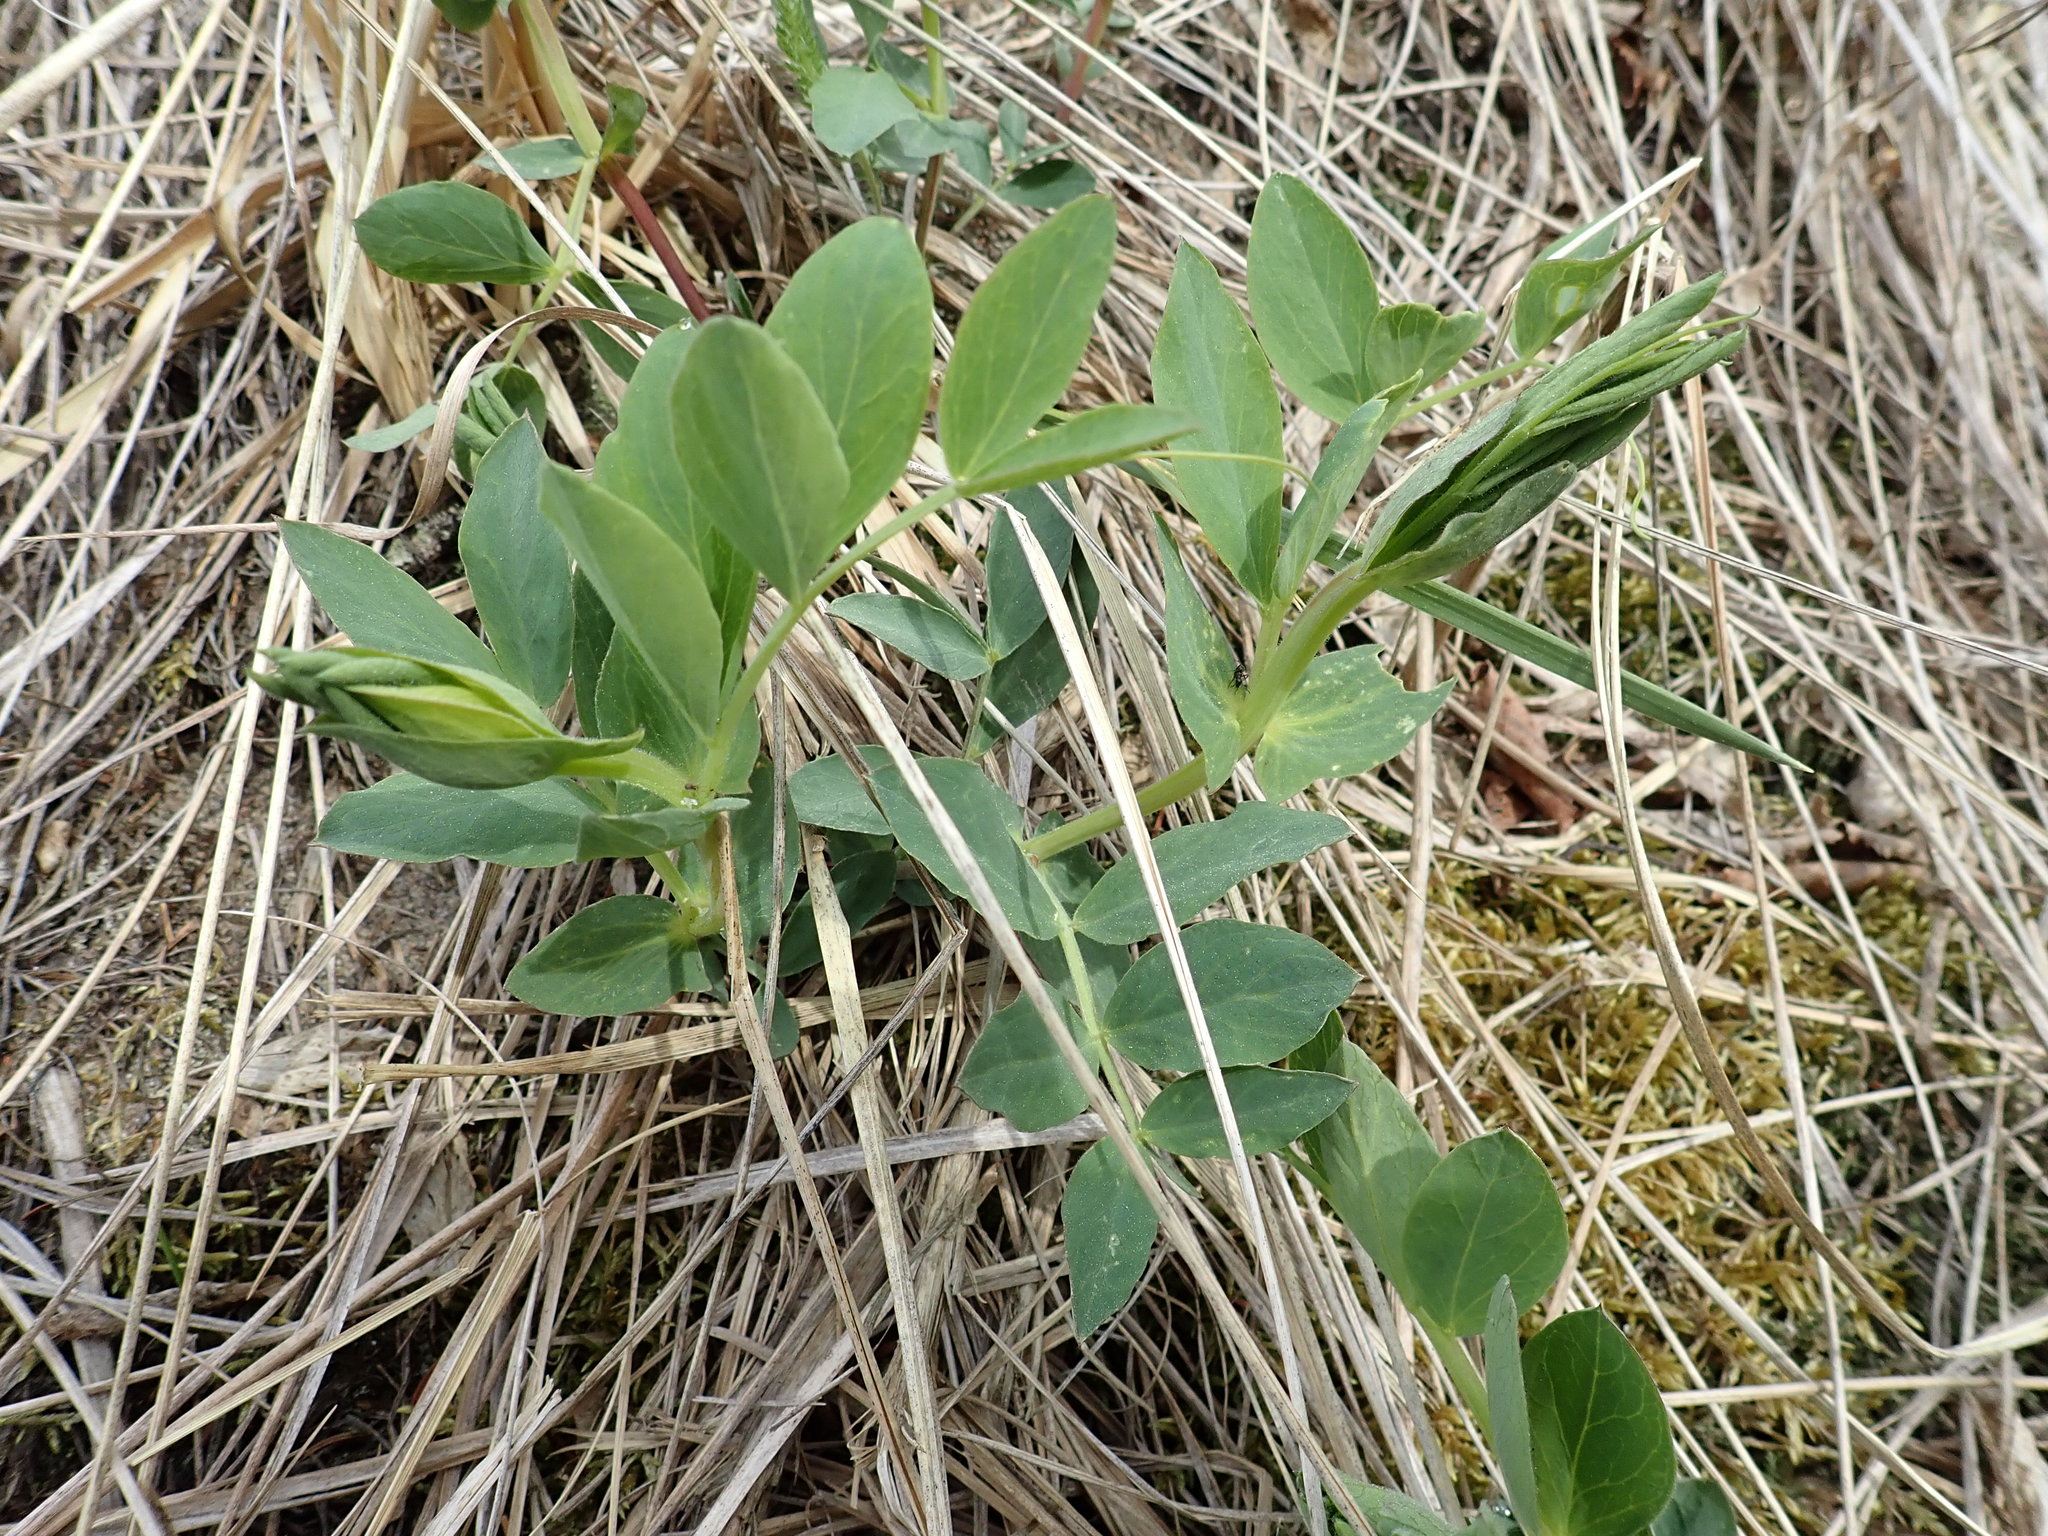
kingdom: Plantae
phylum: Tracheophyta
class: Magnoliopsida
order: Fabales
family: Fabaceae
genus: Lathyrus
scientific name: Lathyrus japonicus
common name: Sea pea
